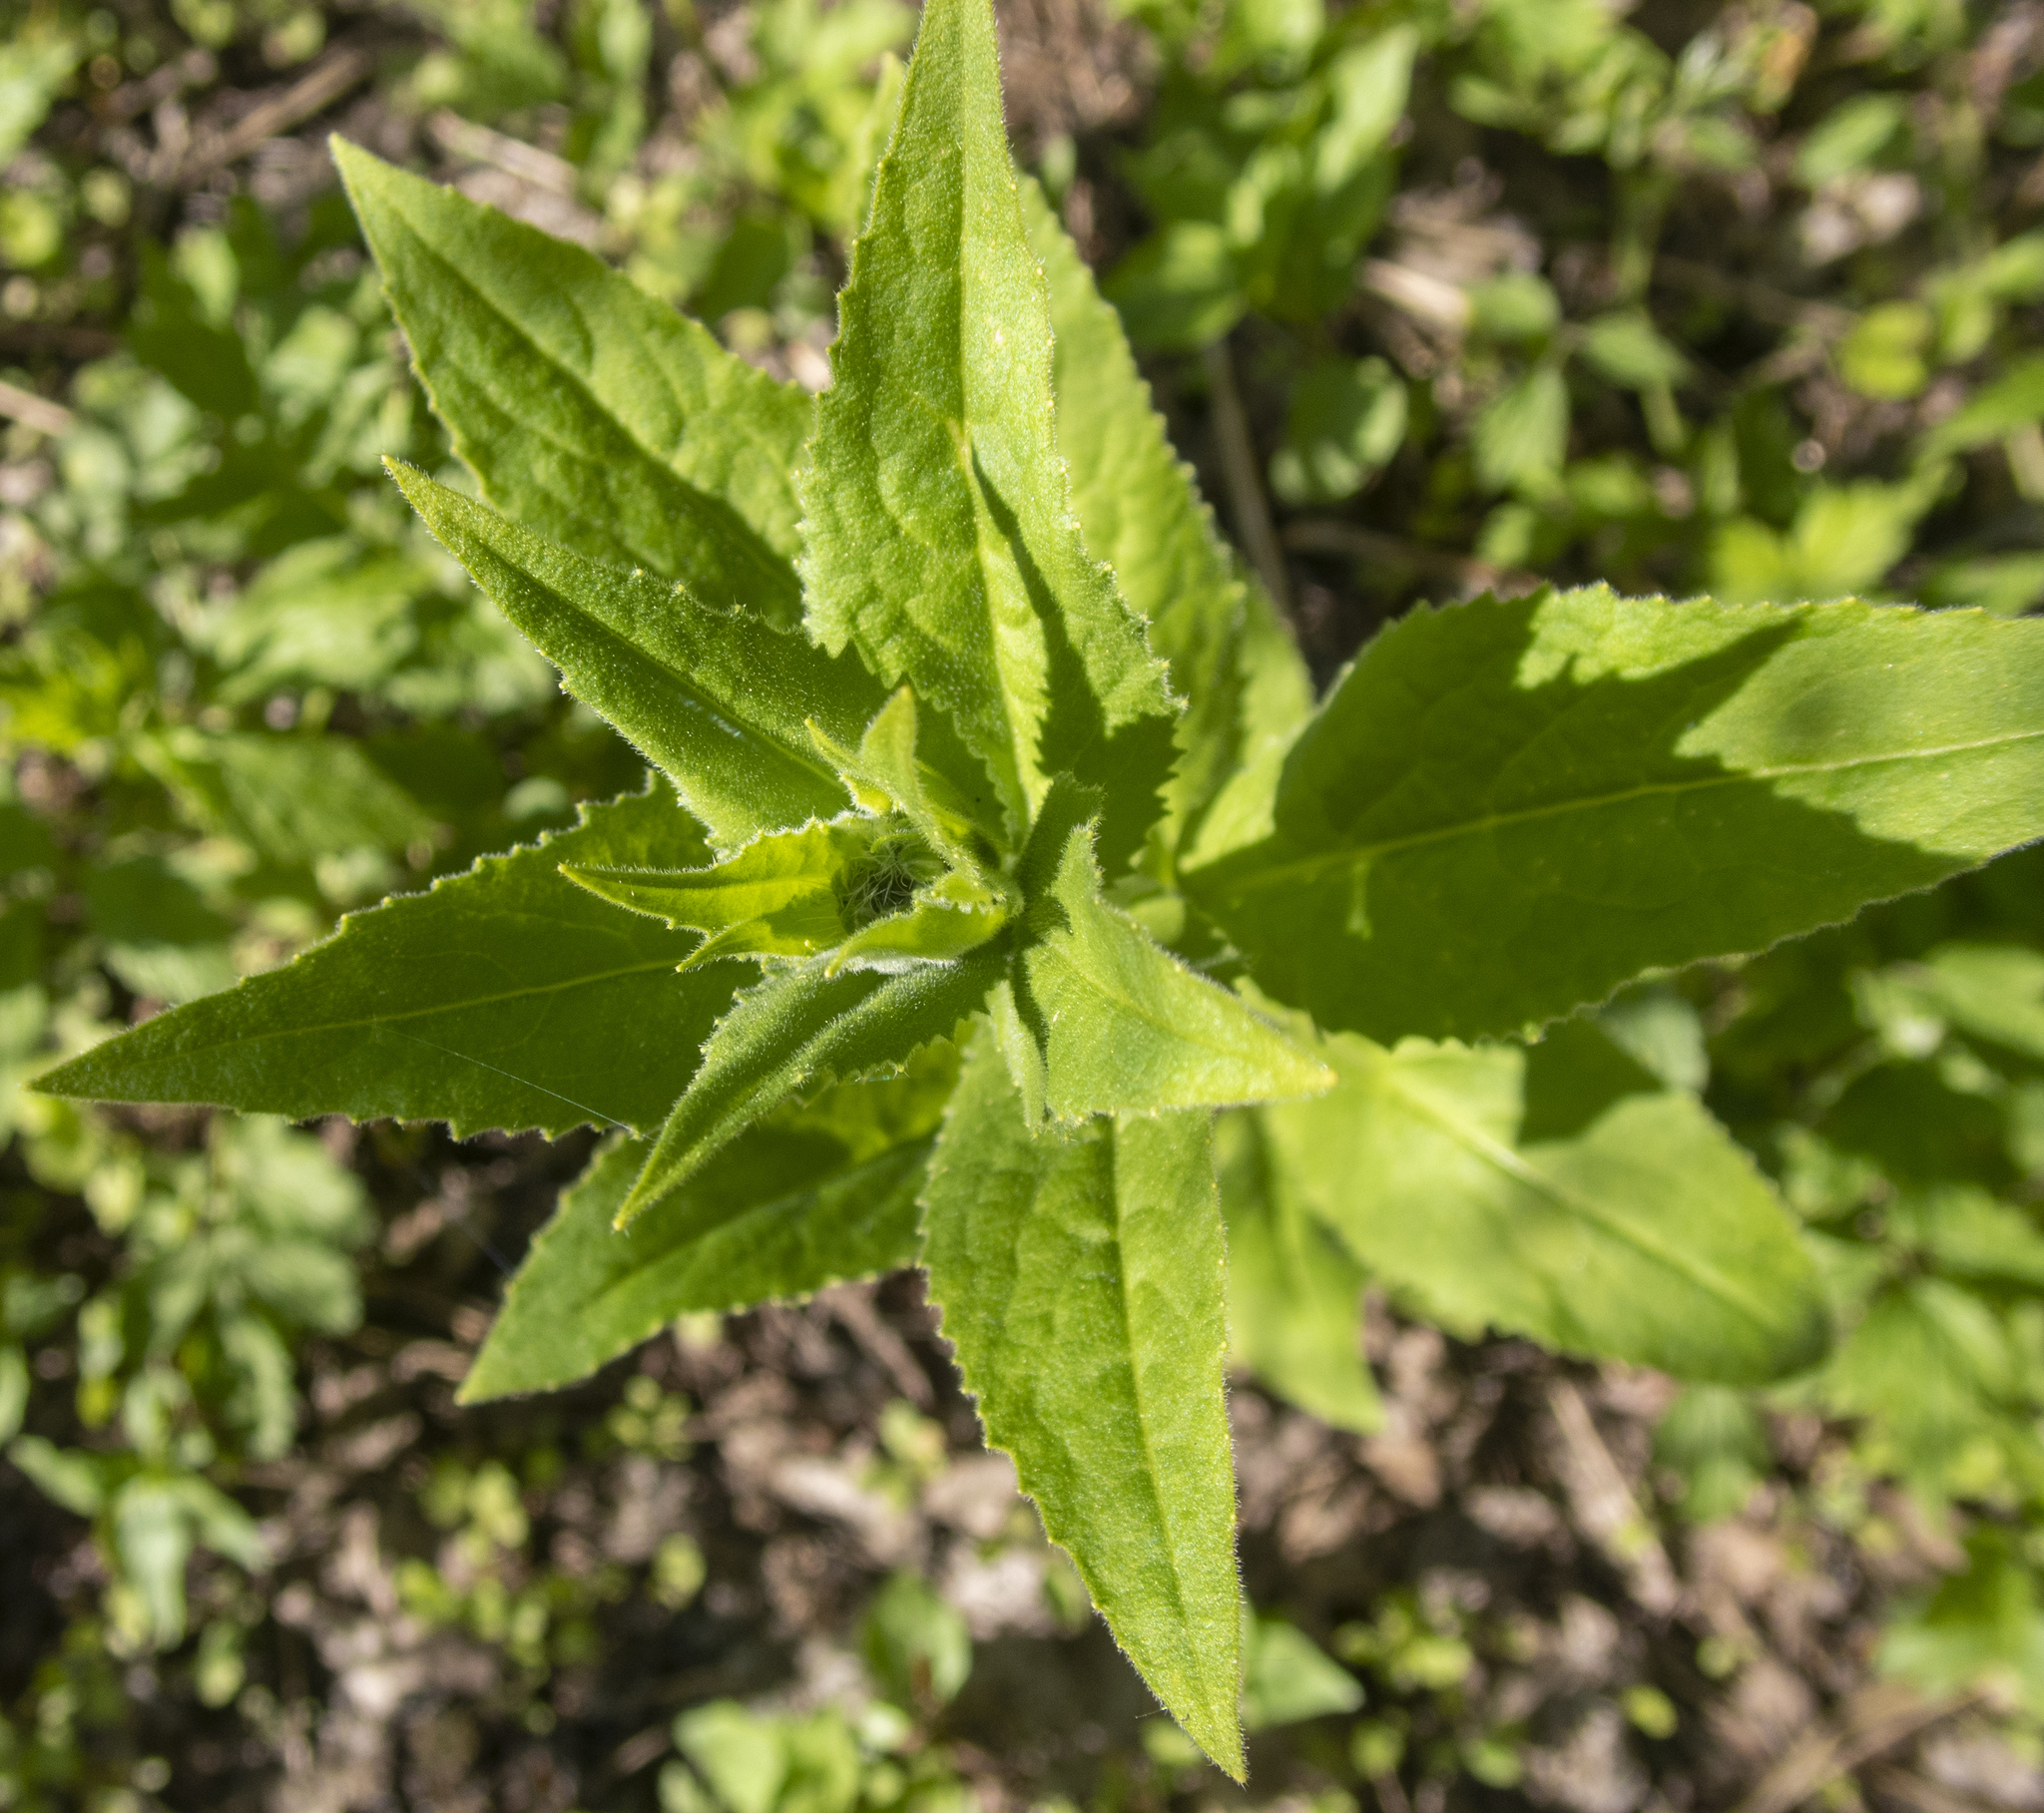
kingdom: Plantae
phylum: Tracheophyta
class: Magnoliopsida
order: Brassicales
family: Brassicaceae
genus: Hesperis
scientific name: Hesperis matronalis
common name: Dame's-violet
